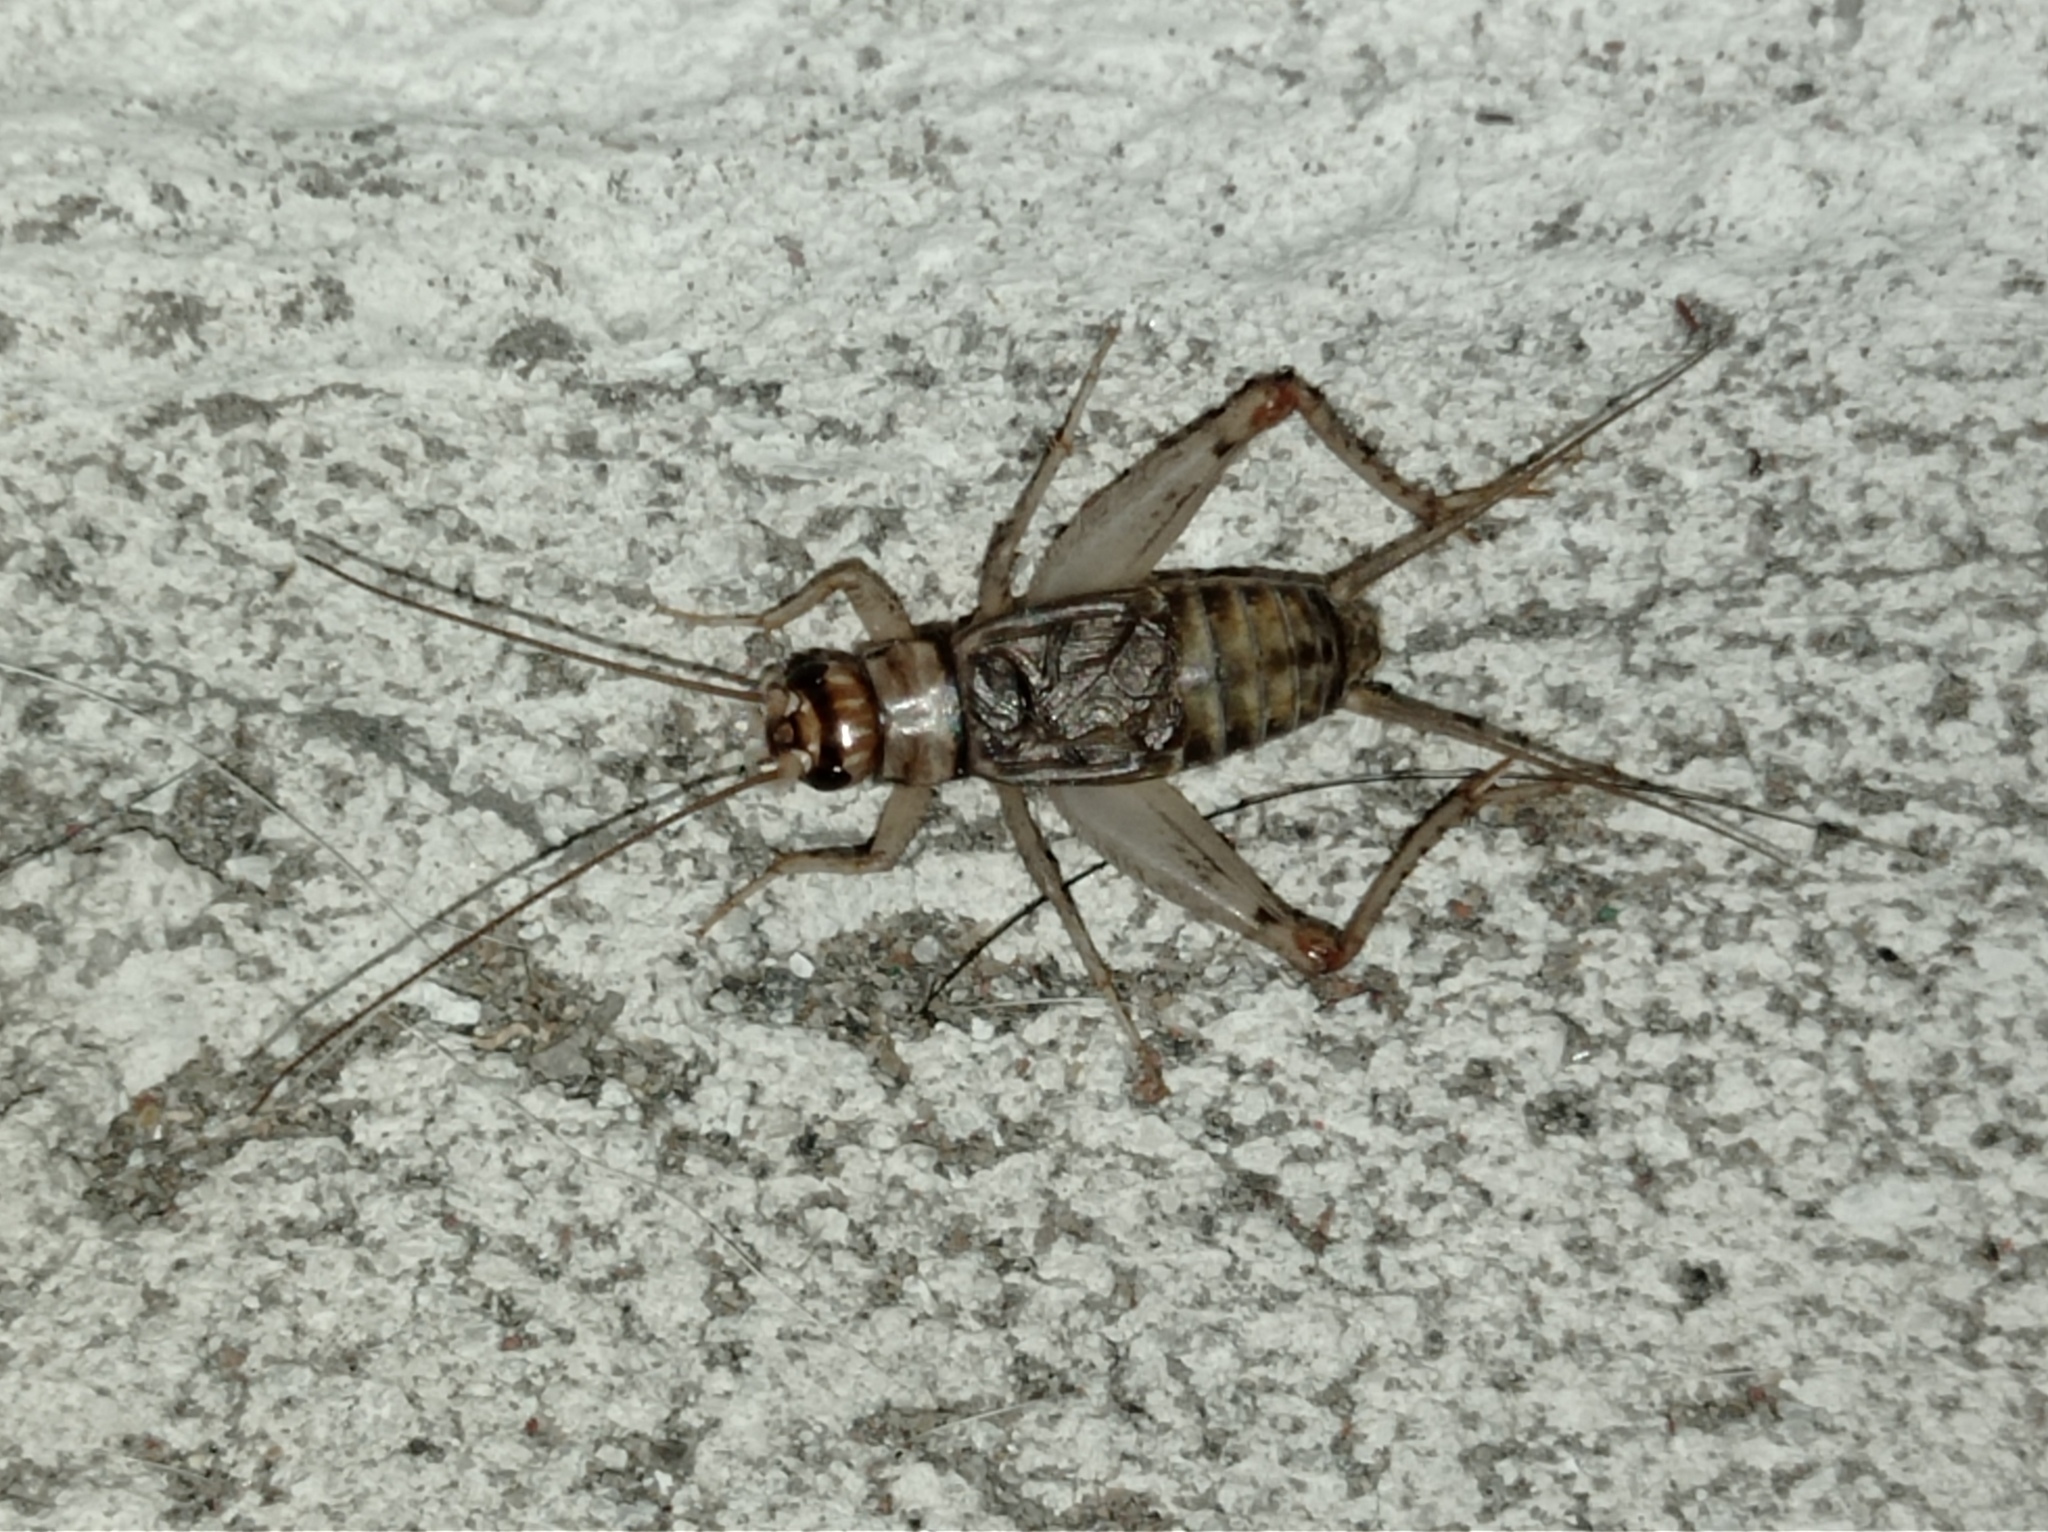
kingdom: Animalia
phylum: Arthropoda
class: Insecta
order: Orthoptera
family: Gryllidae
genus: Gryllodes
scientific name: Gryllodes sigillatus
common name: Tropical house cricket
